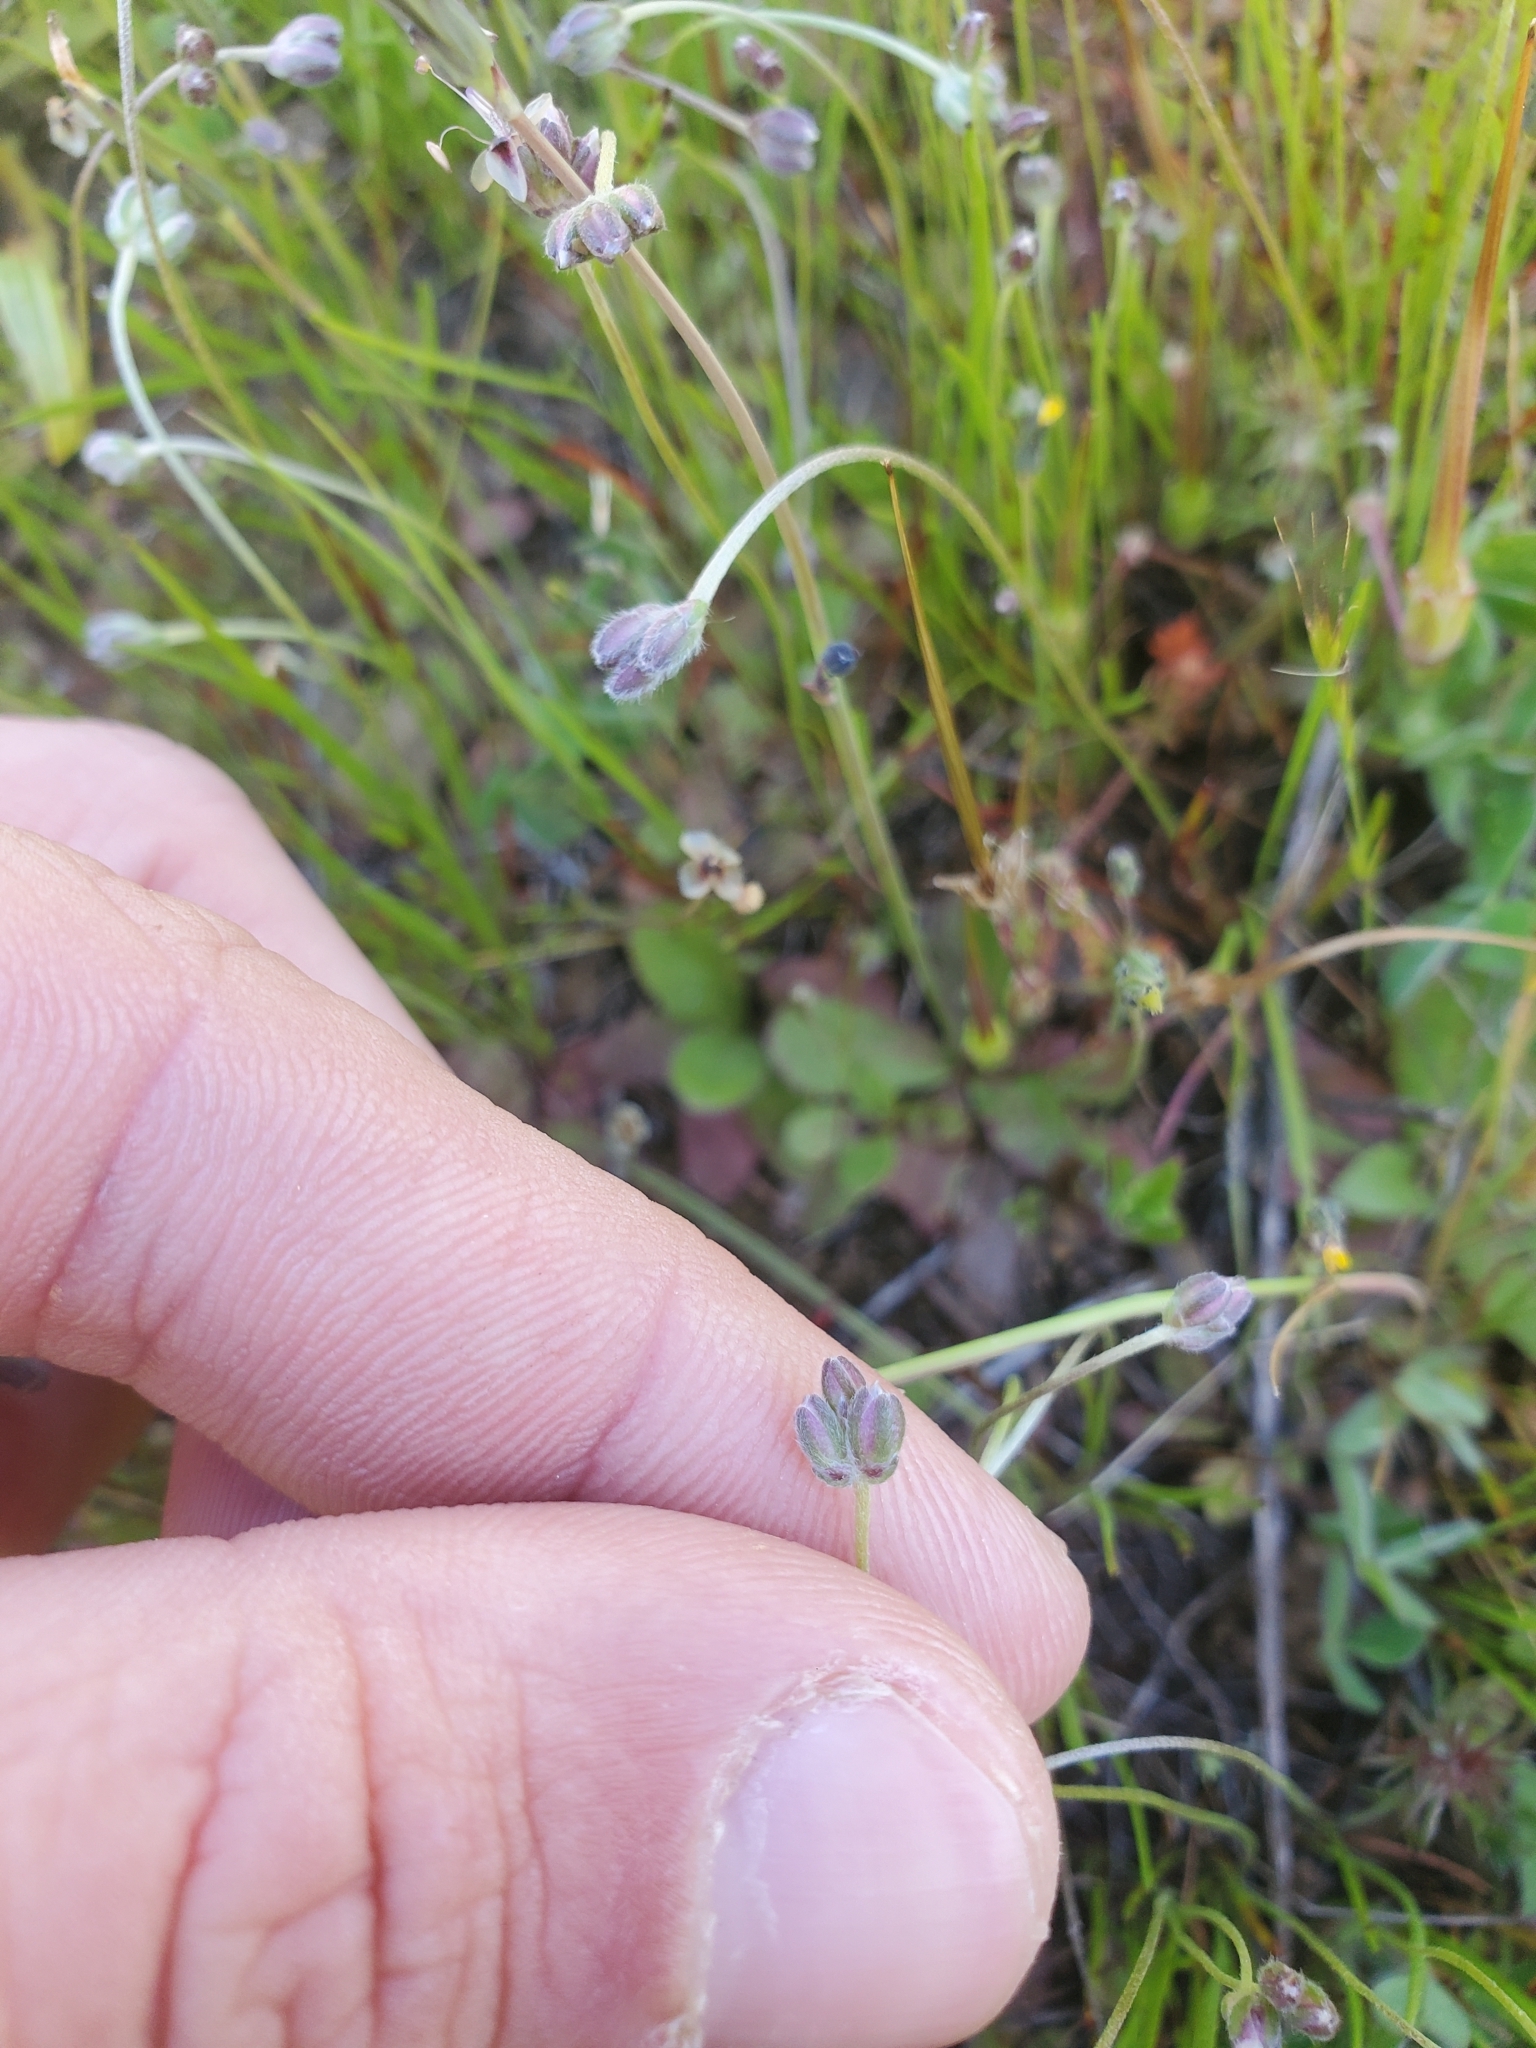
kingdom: Plantae
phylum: Tracheophyta
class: Magnoliopsida
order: Lamiales
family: Plantaginaceae
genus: Plantago
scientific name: Plantago erecta
